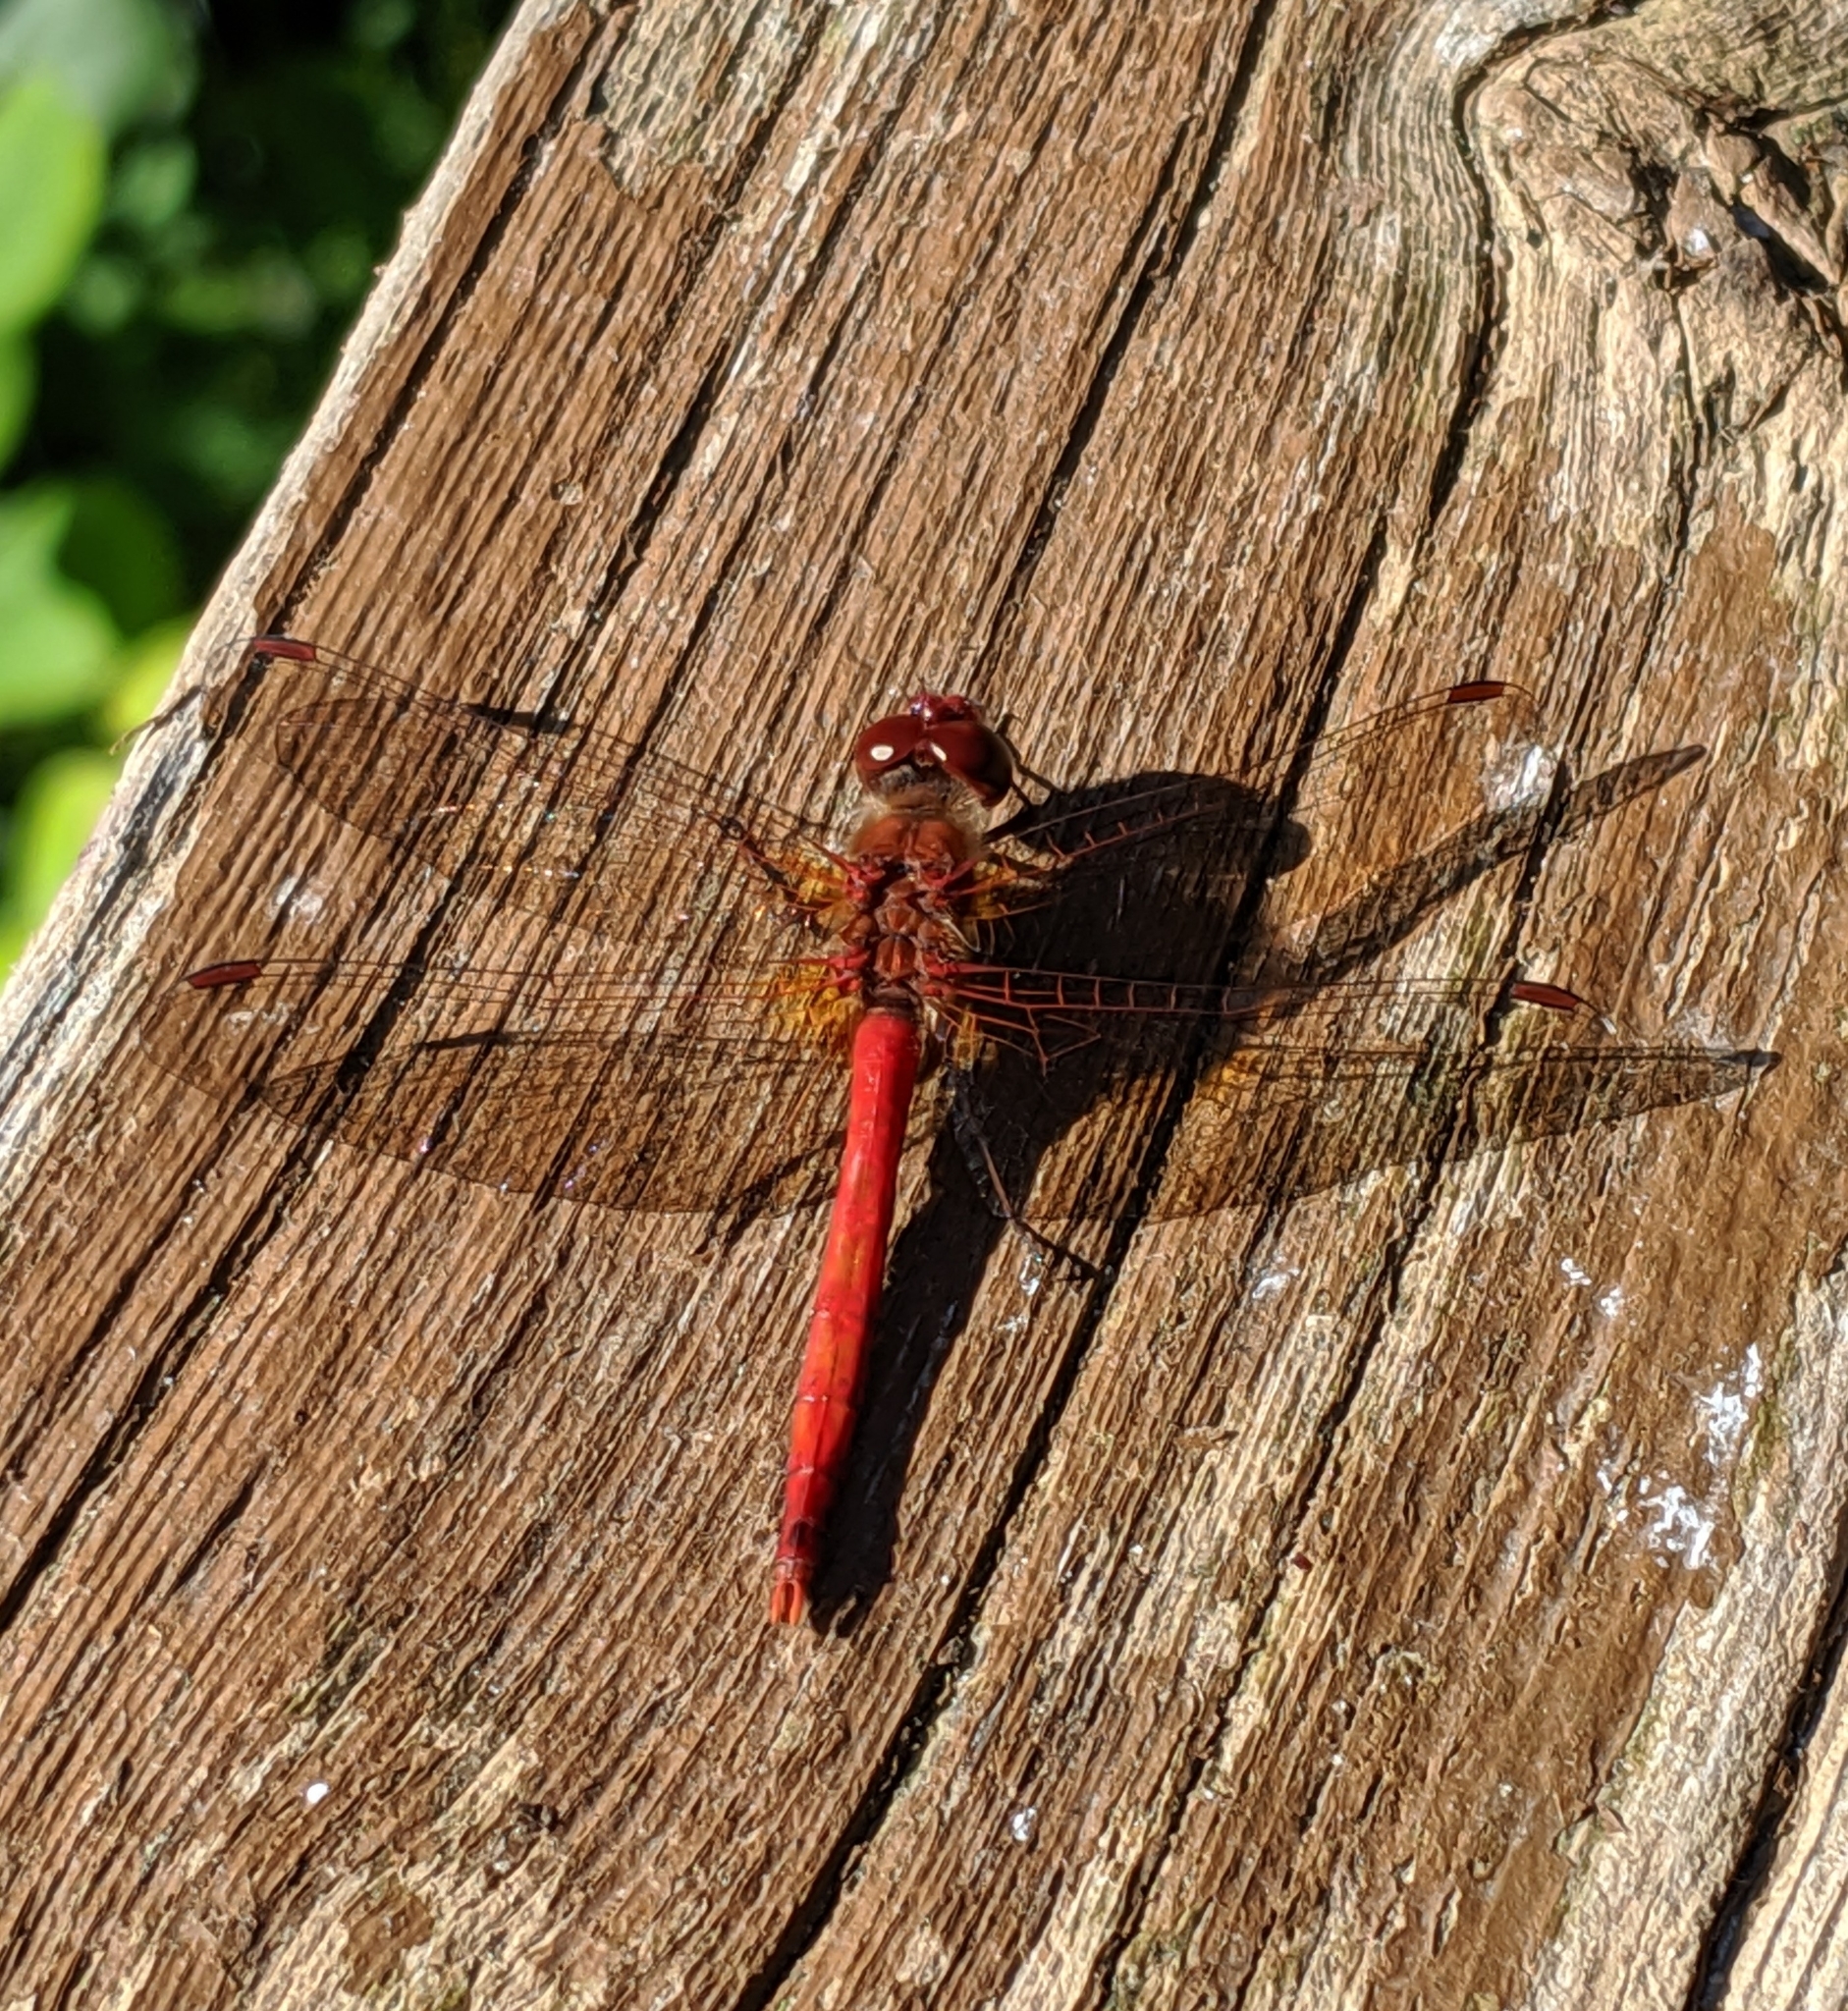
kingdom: Animalia
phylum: Arthropoda
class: Insecta
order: Odonata
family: Libellulidae
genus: Sympetrum
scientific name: Sympetrum vicinum
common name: Autumn meadowhawk
